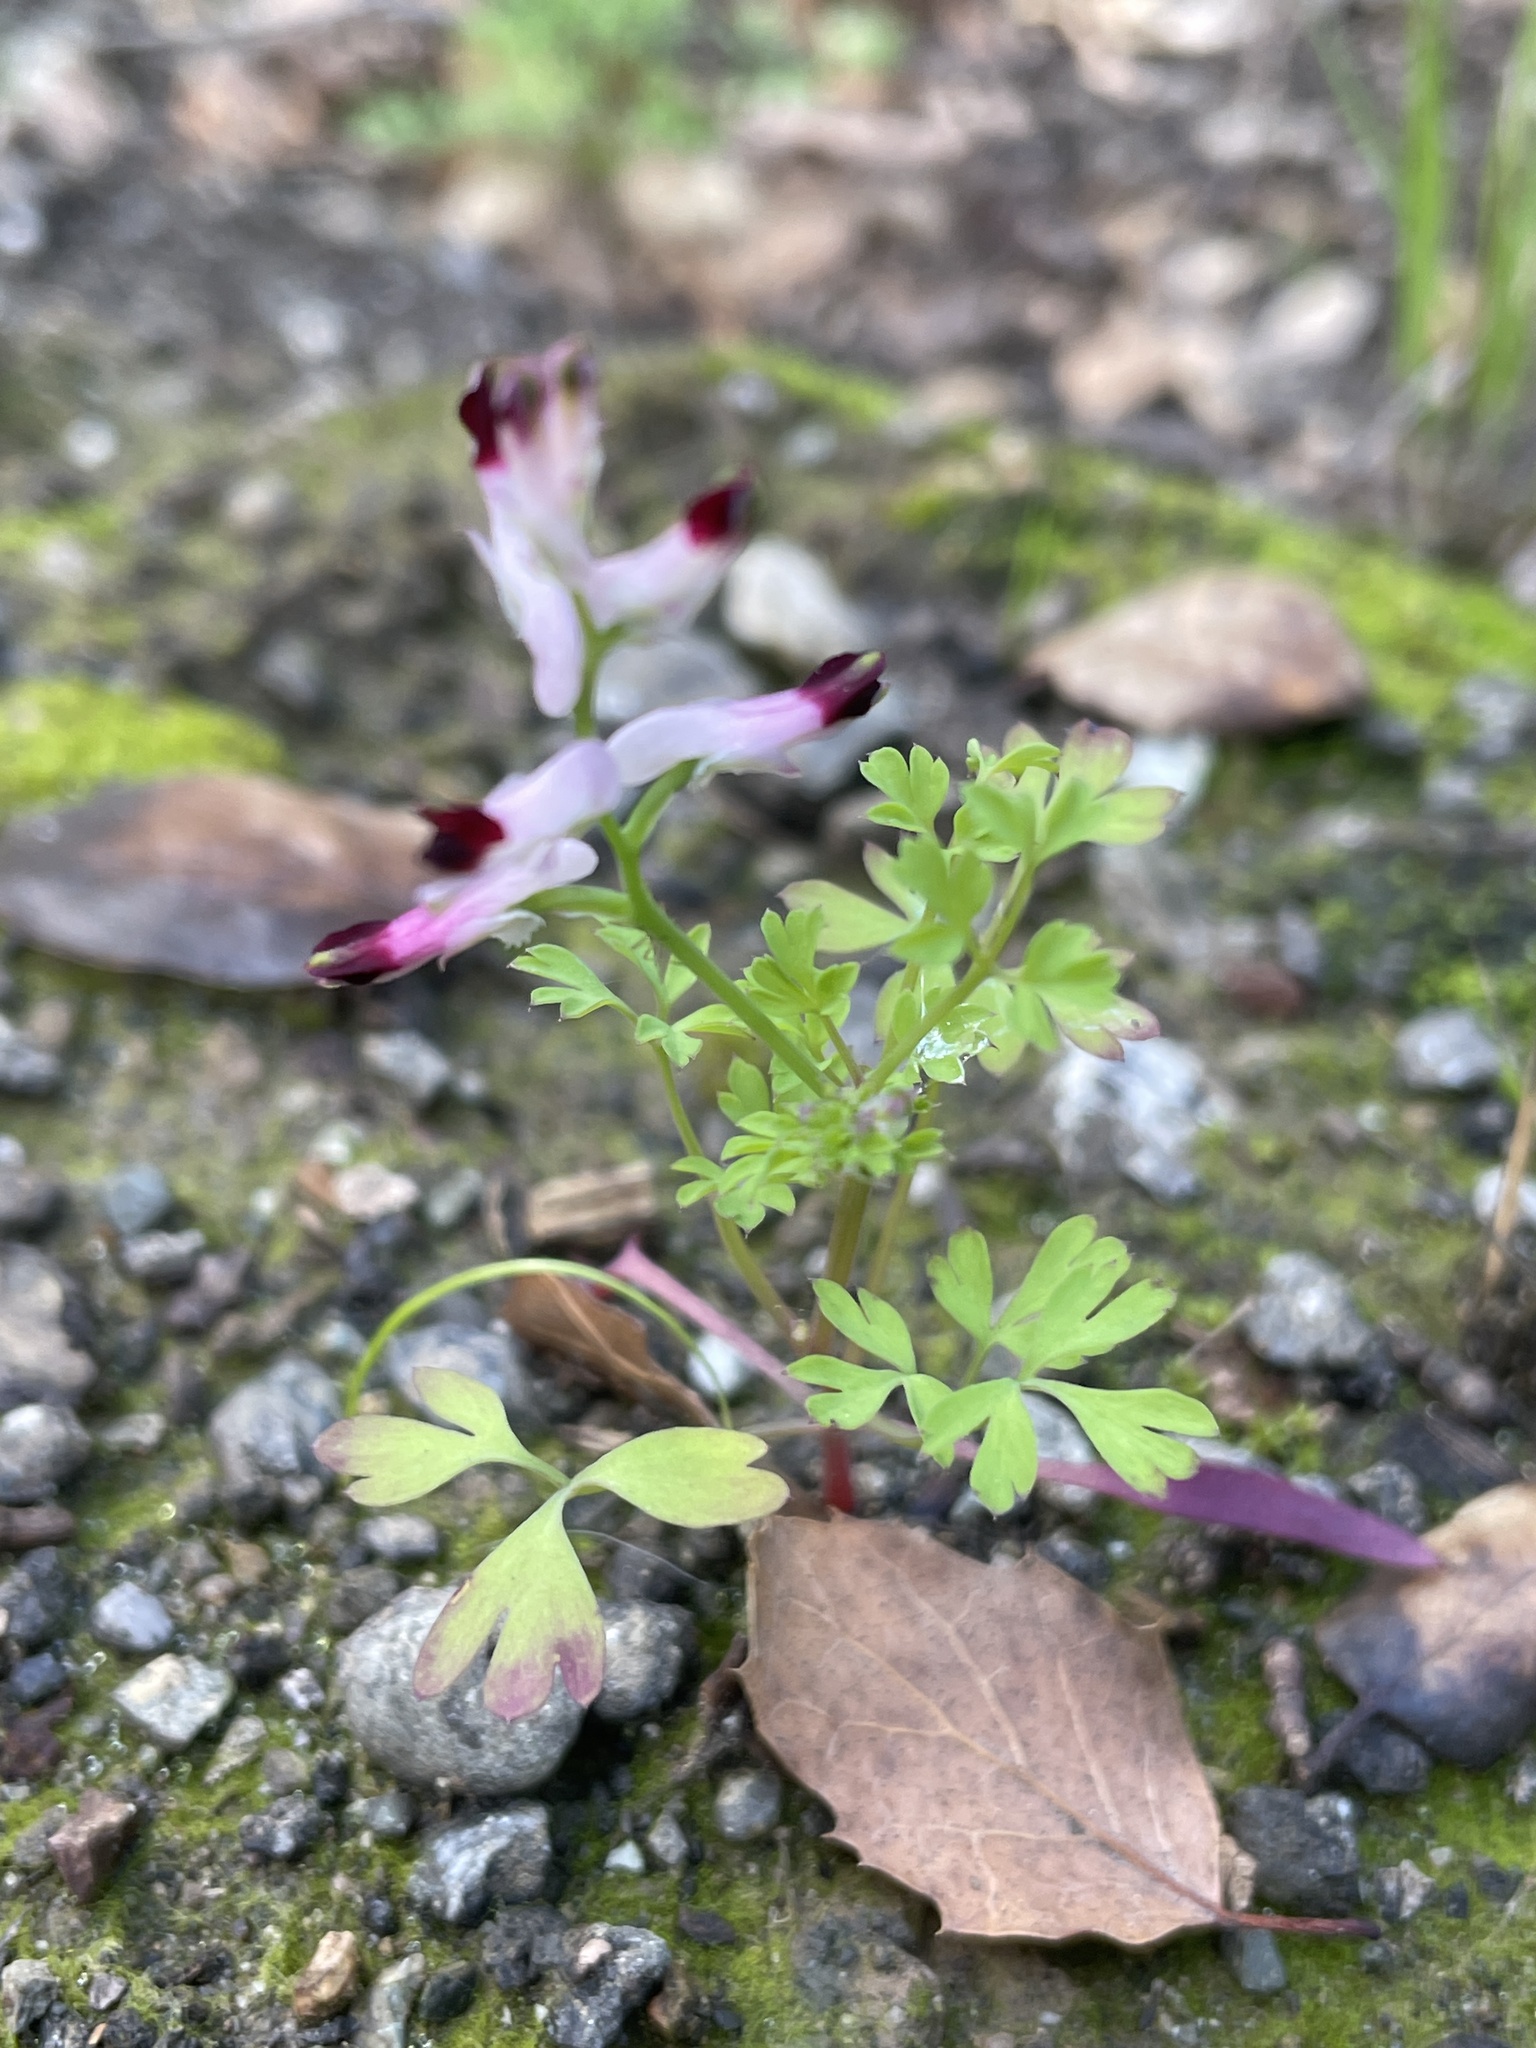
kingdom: Plantae
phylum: Tracheophyta
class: Magnoliopsida
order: Ranunculales
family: Papaveraceae
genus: Fumaria
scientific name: Fumaria muralis
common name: Common ramping-fumitory
